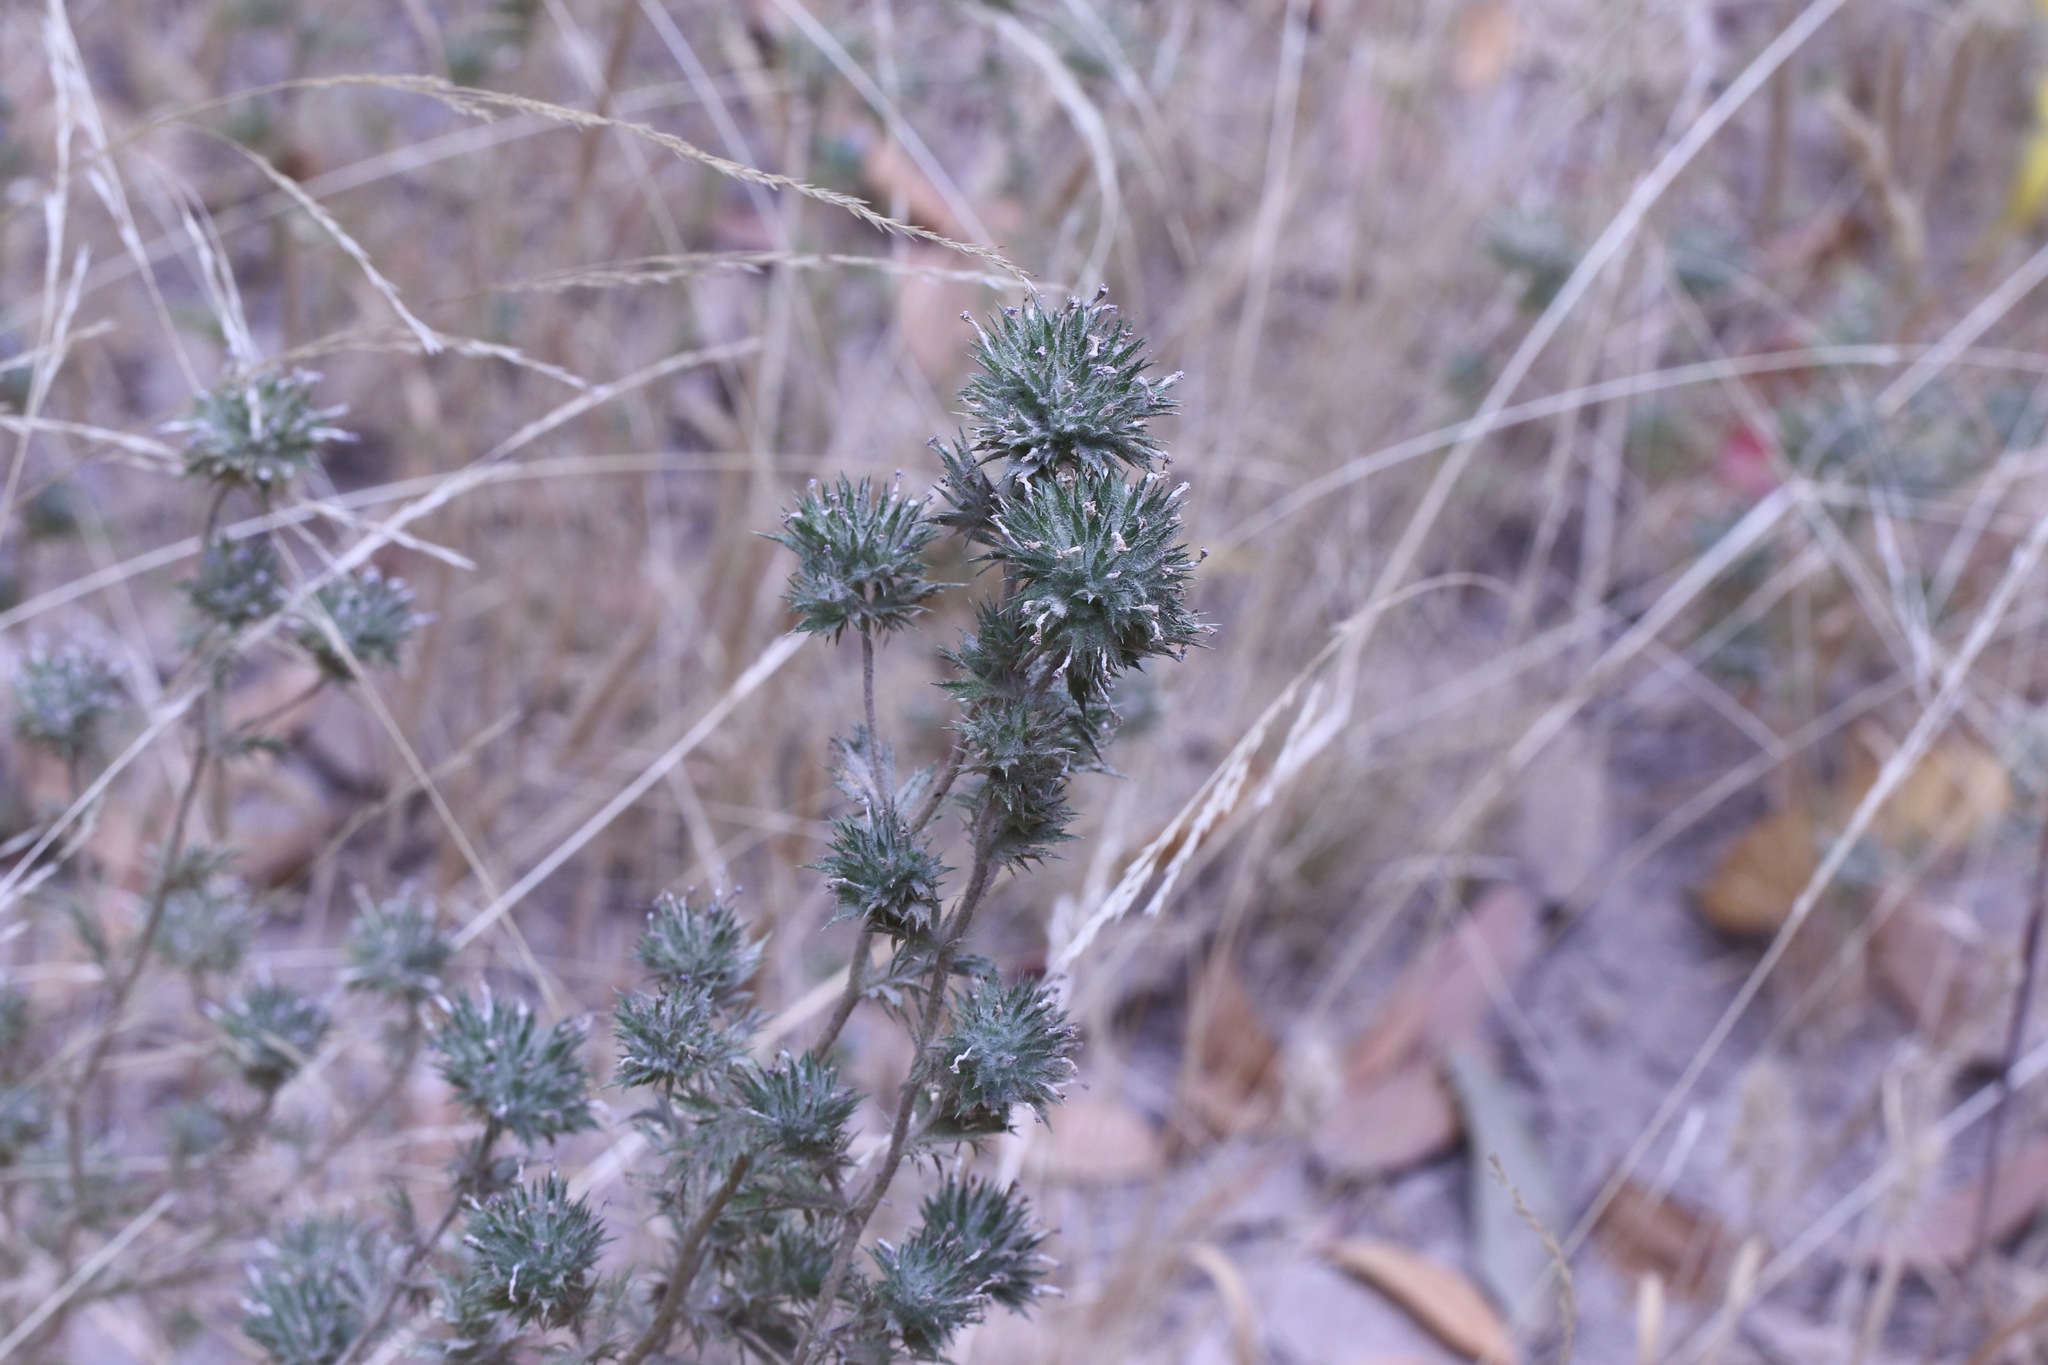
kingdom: Plantae
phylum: Tracheophyta
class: Magnoliopsida
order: Ericales
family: Polemoniaceae
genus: Navarretia
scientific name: Navarretia squarrosa
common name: Skunkweed
